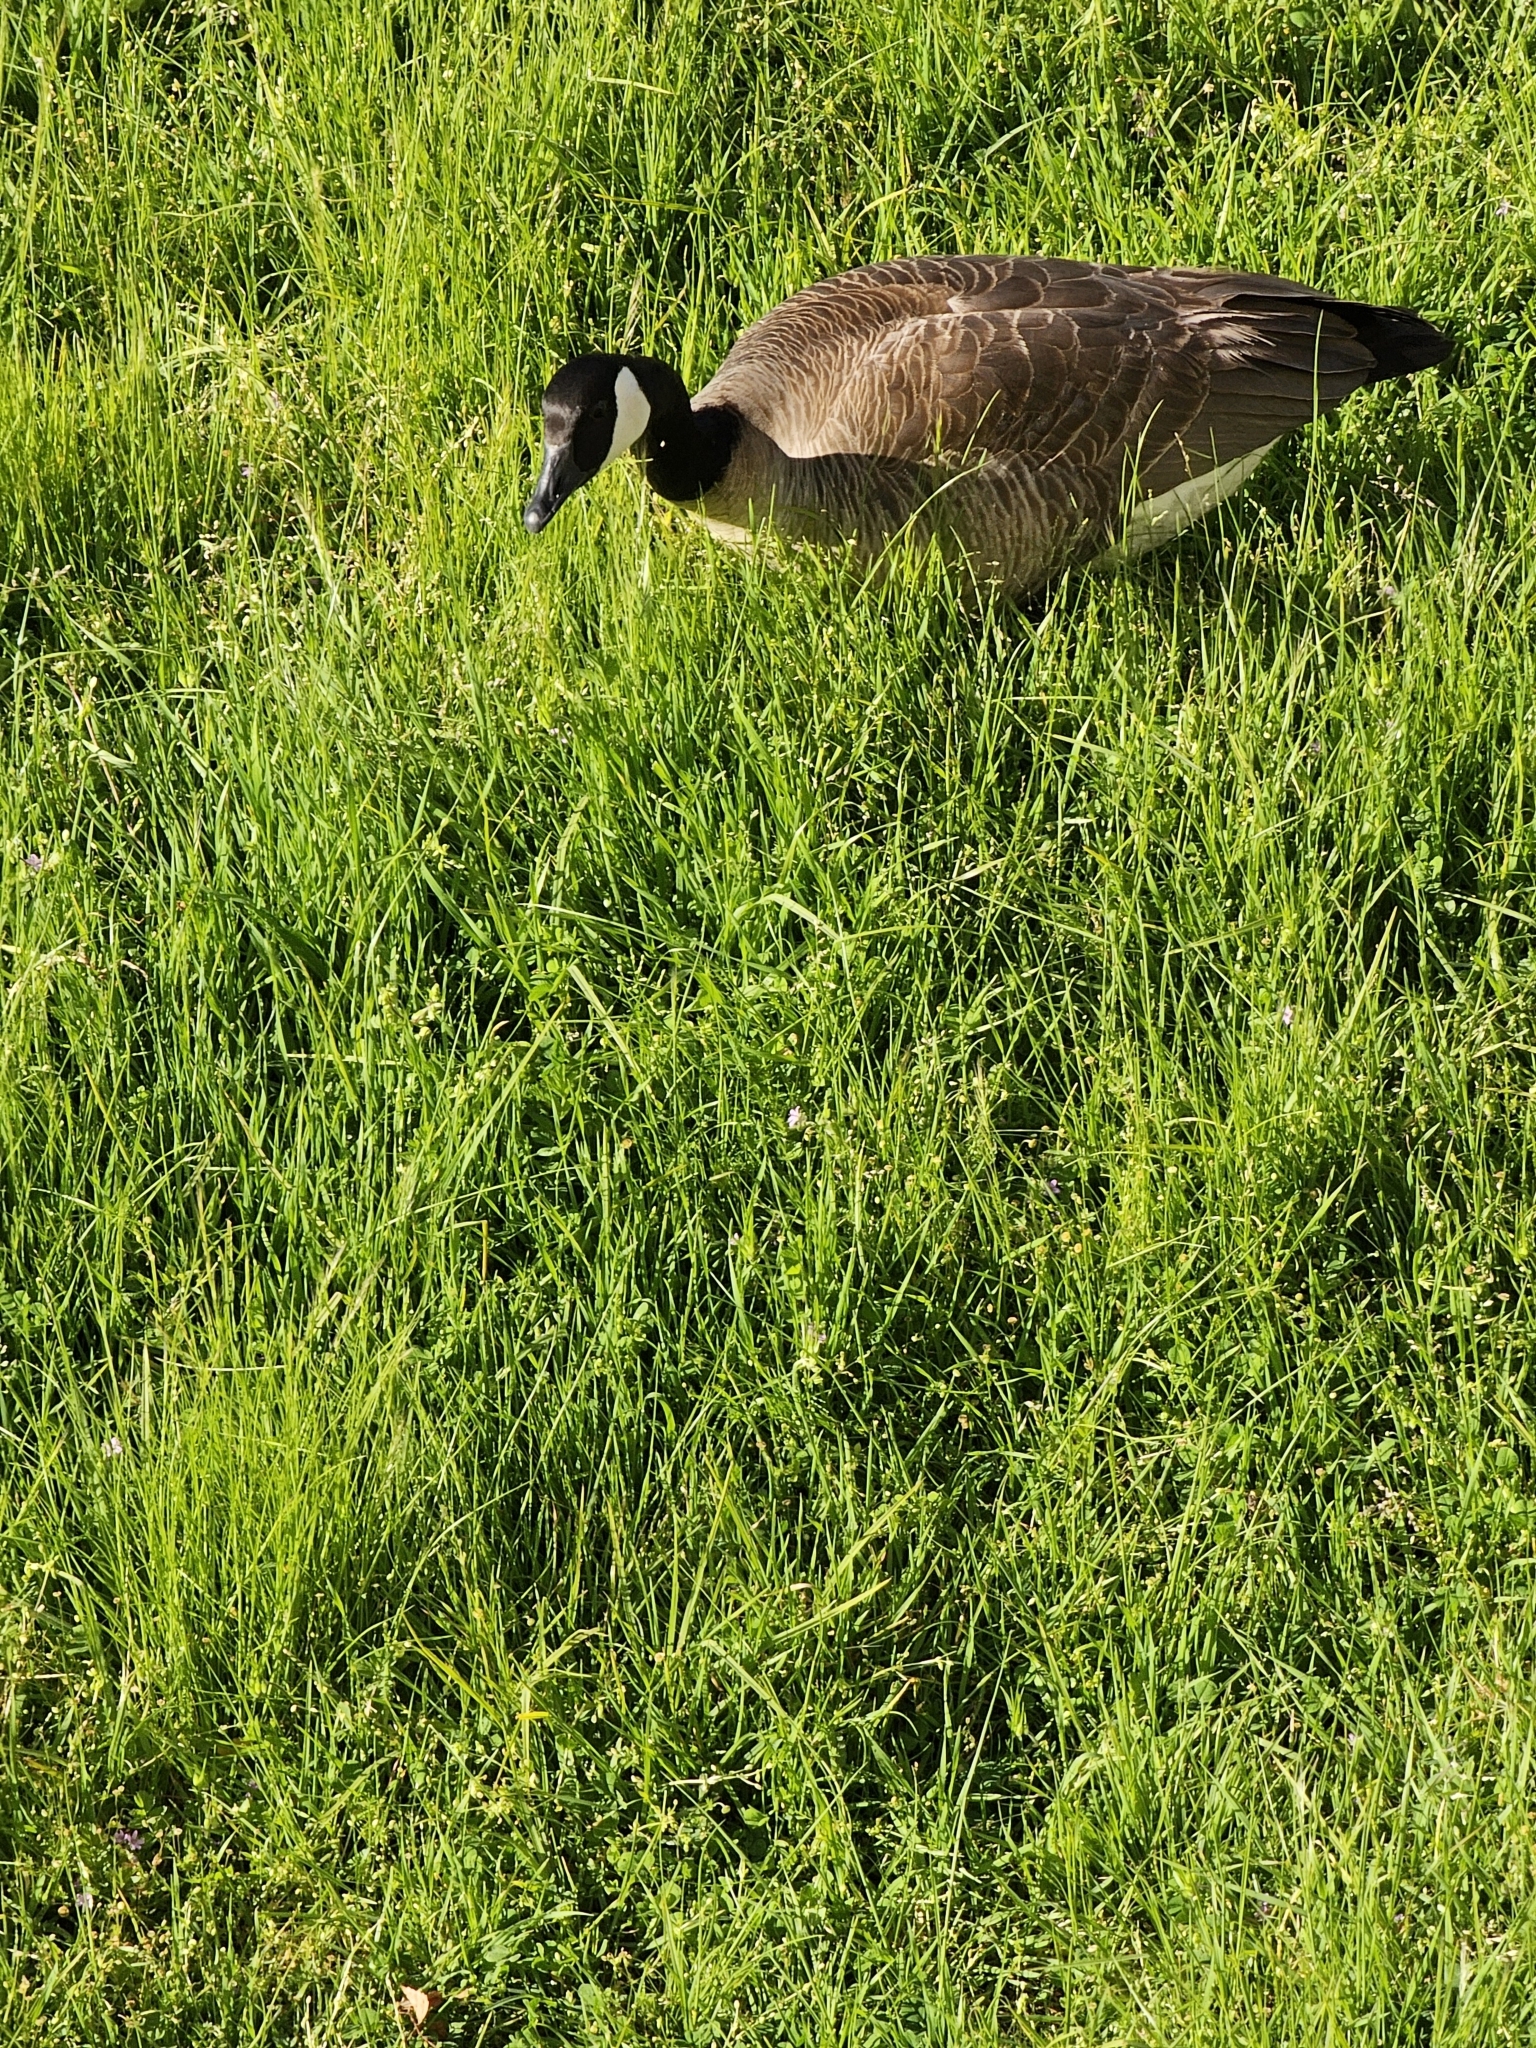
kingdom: Animalia
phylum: Chordata
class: Aves
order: Anseriformes
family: Anatidae
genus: Branta
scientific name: Branta canadensis
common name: Canada goose
